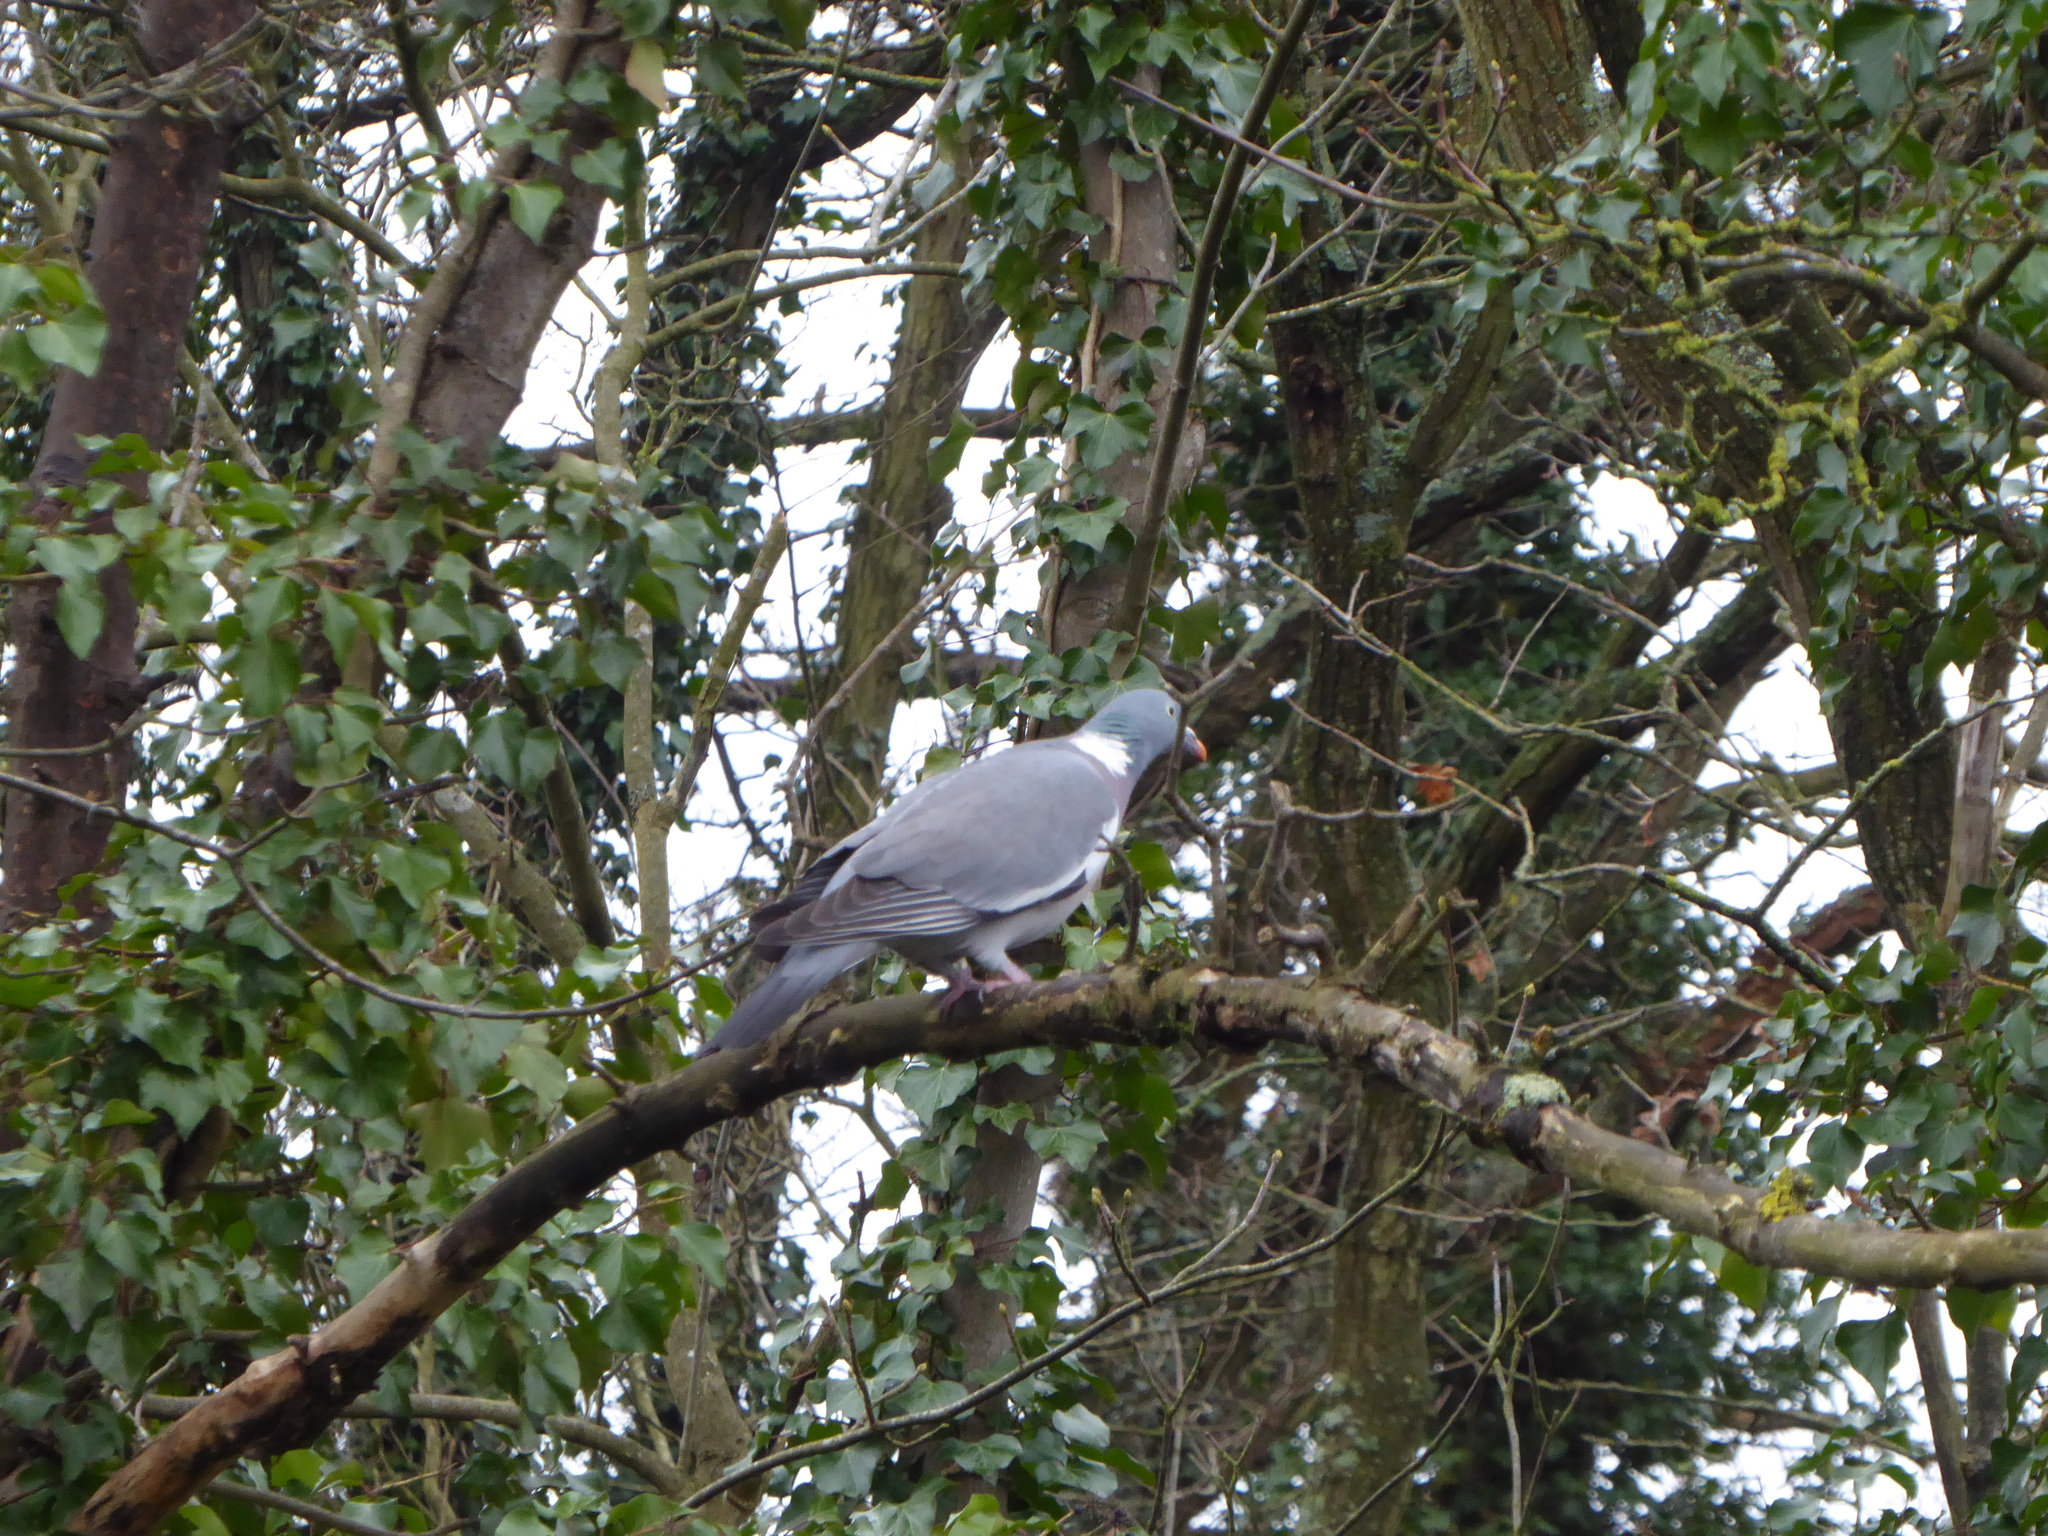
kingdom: Animalia
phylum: Chordata
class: Aves
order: Columbiformes
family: Columbidae
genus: Columba
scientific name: Columba palumbus
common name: Common wood pigeon
